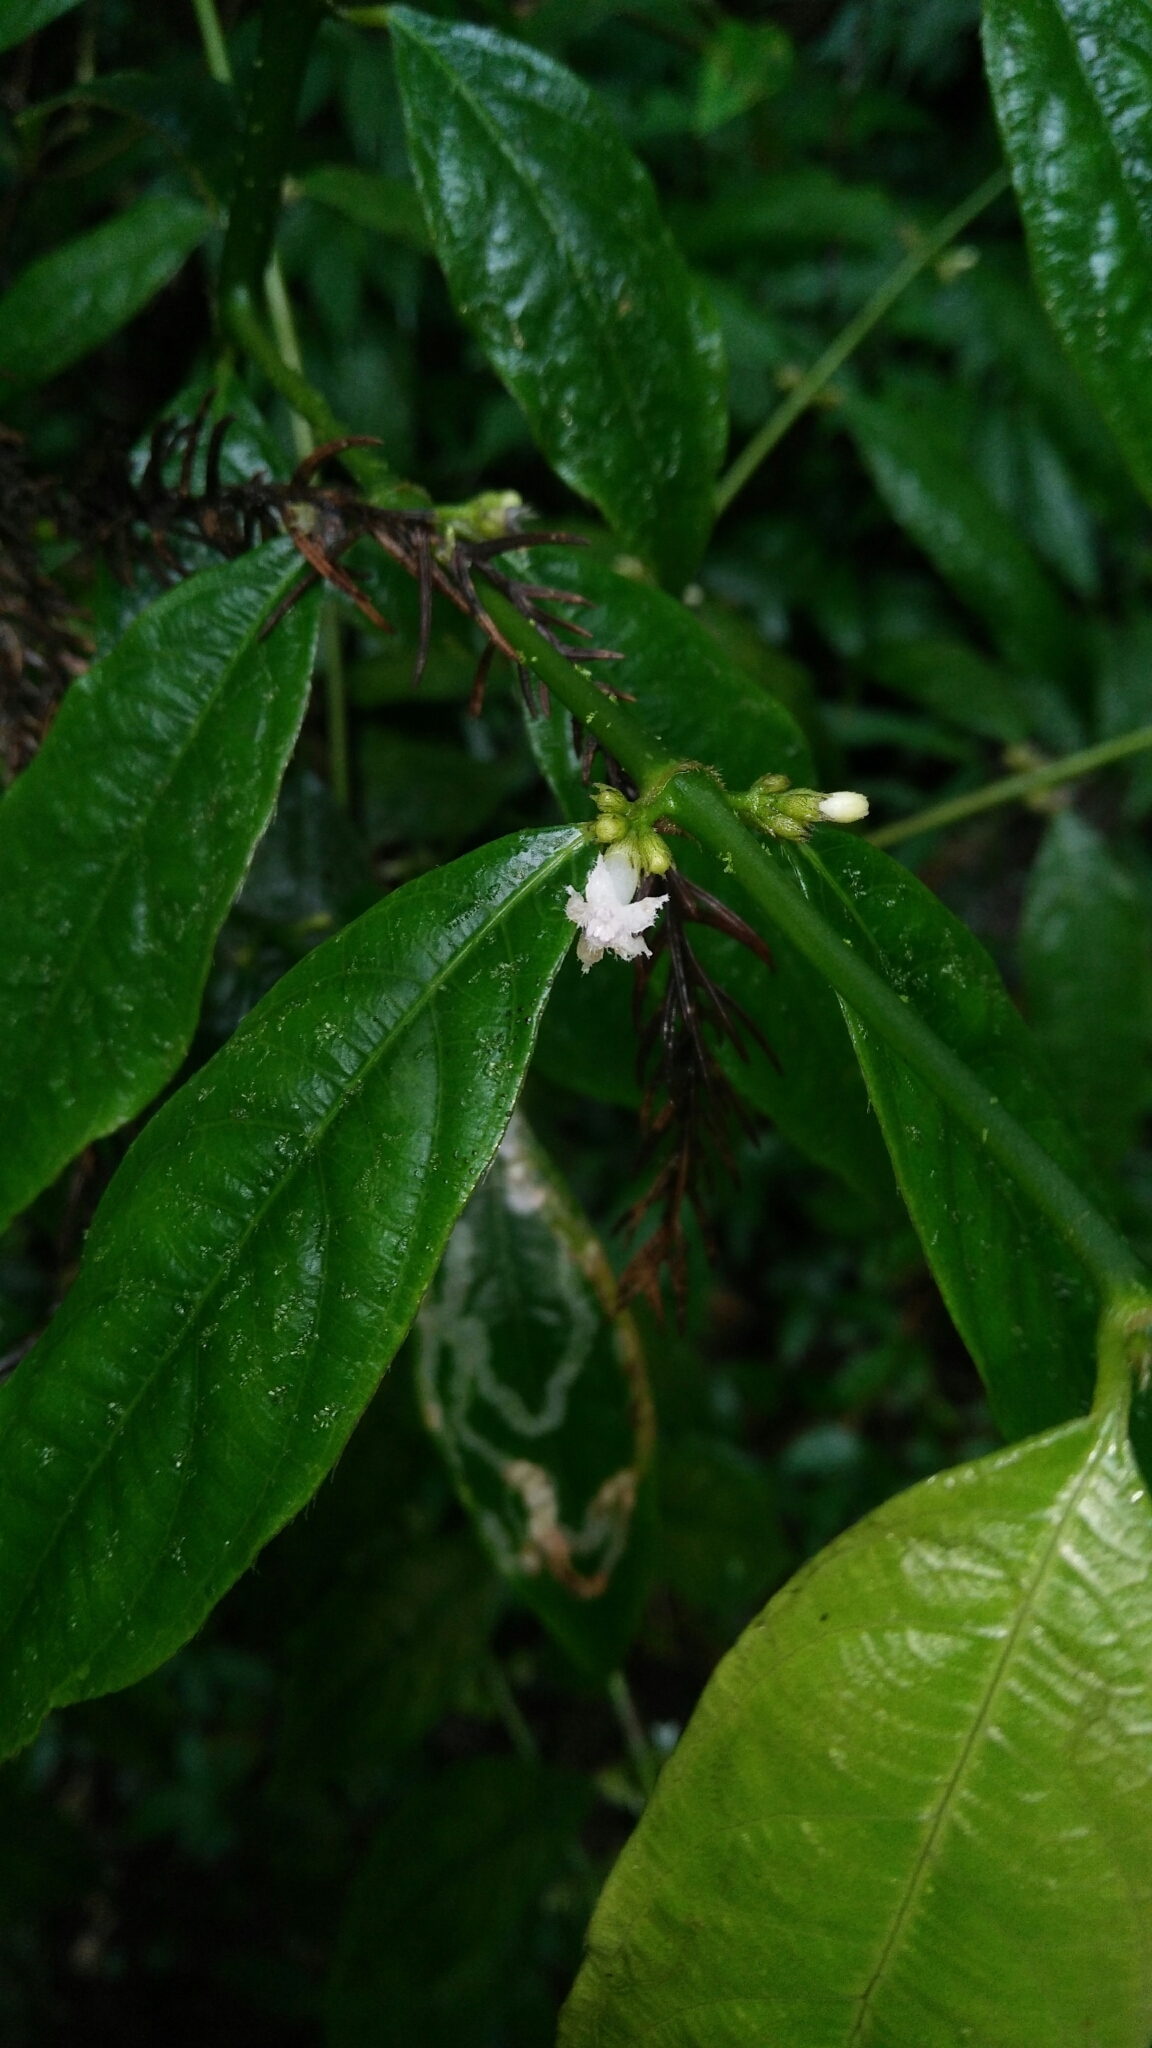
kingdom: Plantae
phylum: Tracheophyta
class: Magnoliopsida
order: Gentianales
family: Rubiaceae
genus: Lasianthus
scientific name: Lasianthus micranthus
